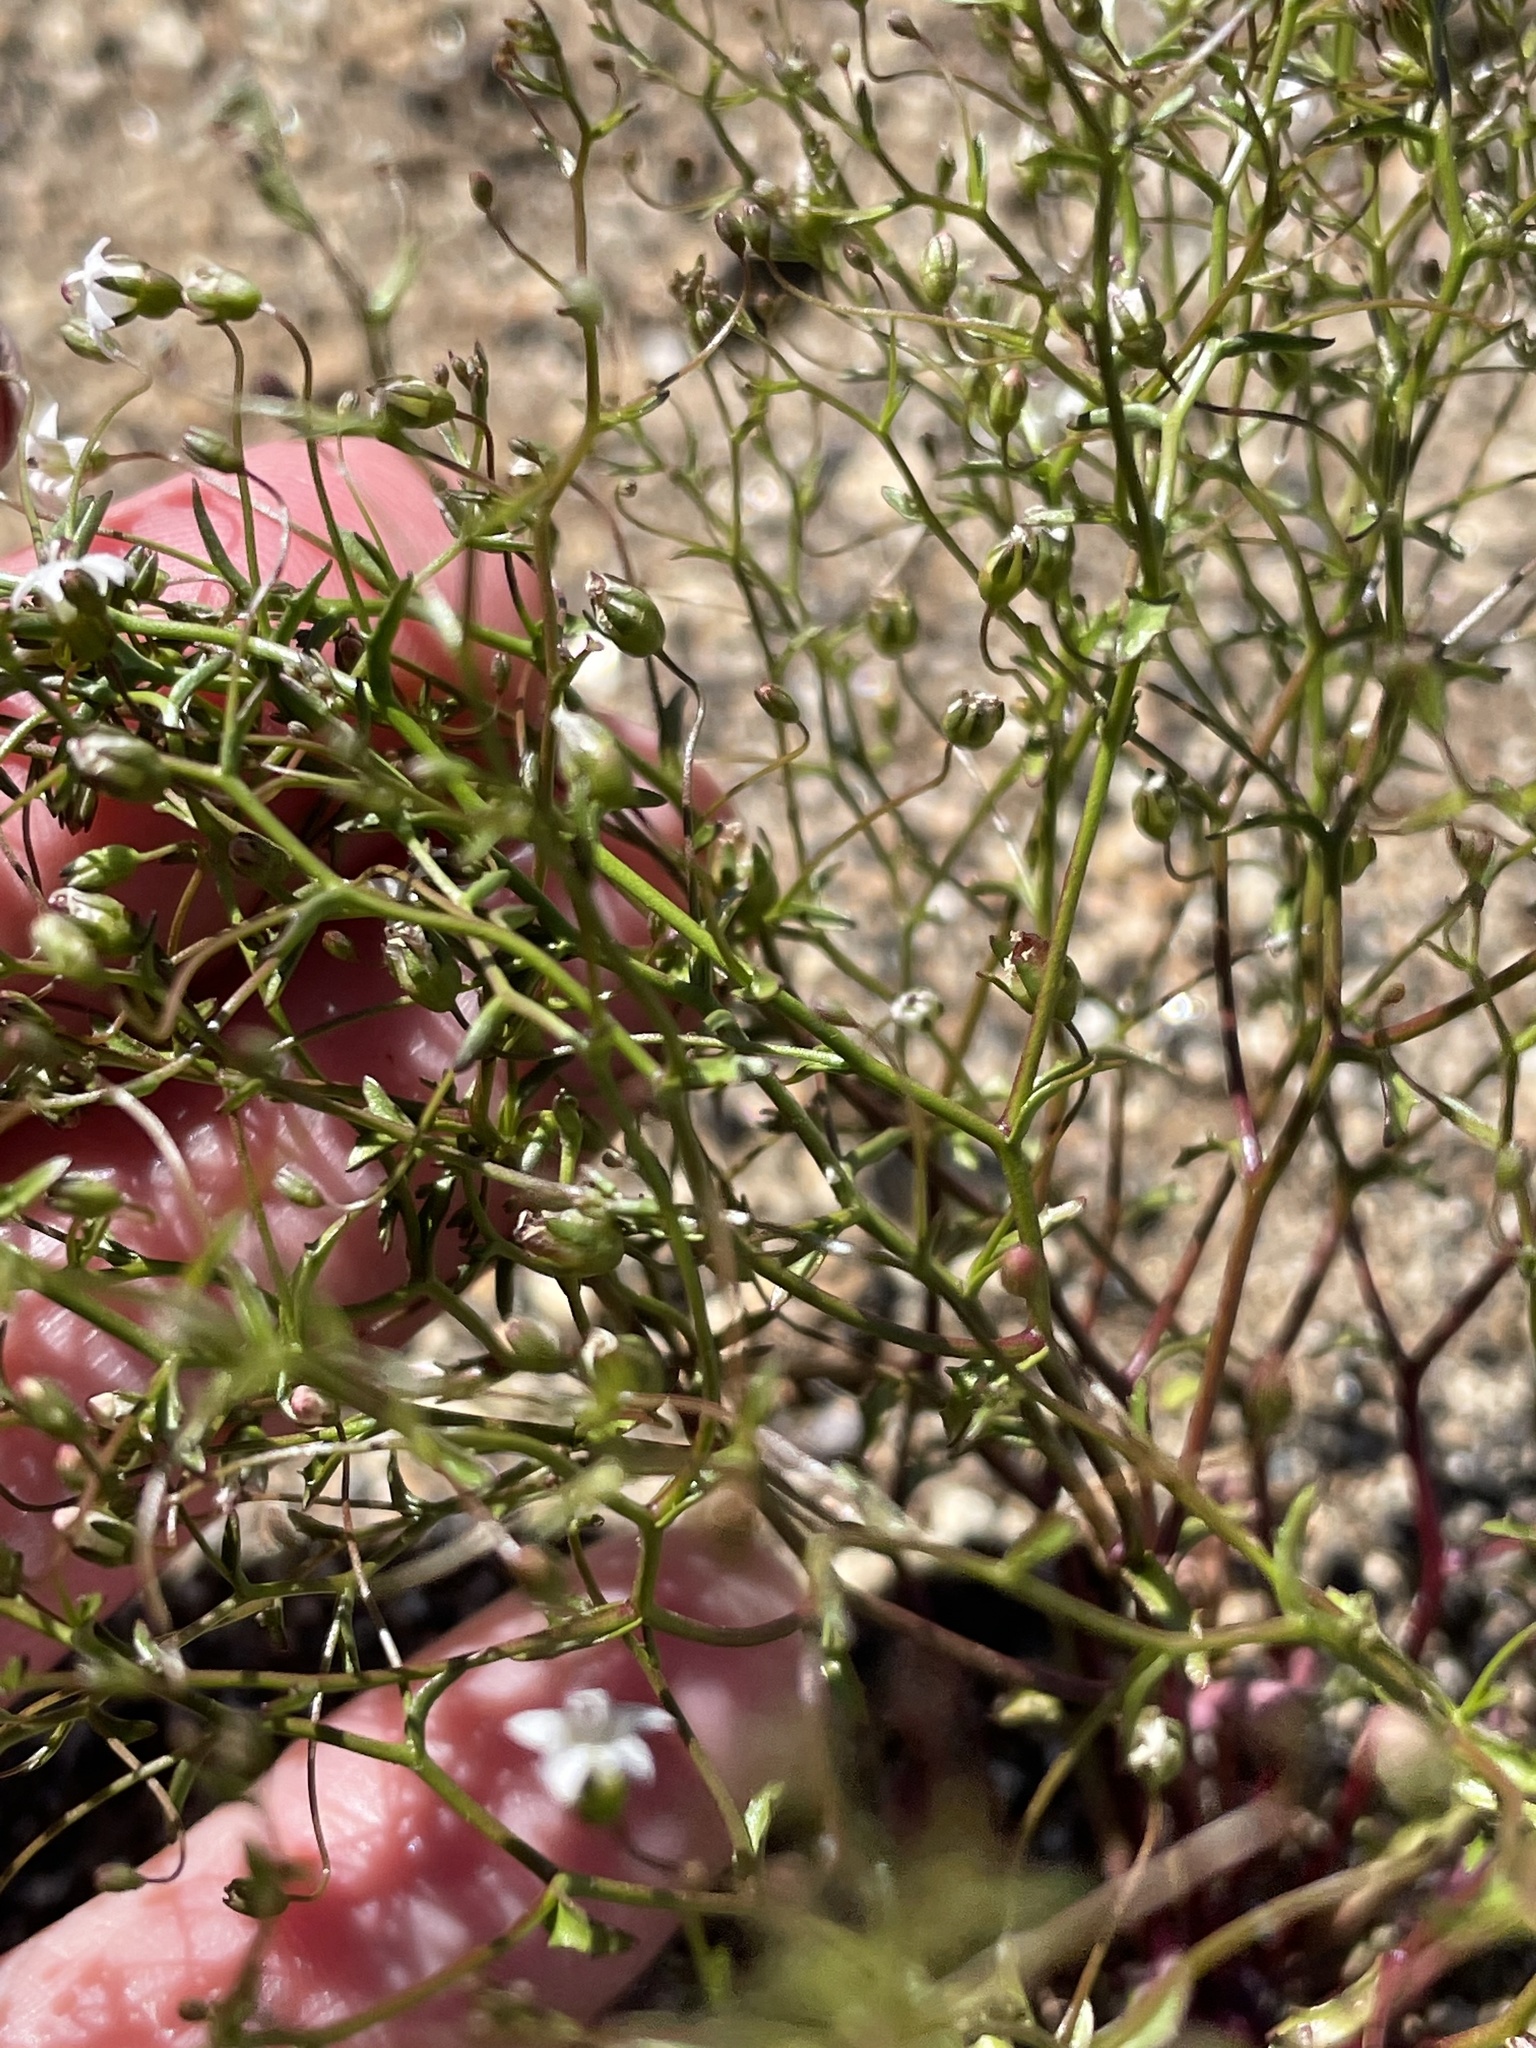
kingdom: Plantae
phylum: Tracheophyta
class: Magnoliopsida
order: Asterales
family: Campanulaceae
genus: Nemacladus
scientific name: Nemacladus pinnatifidus
